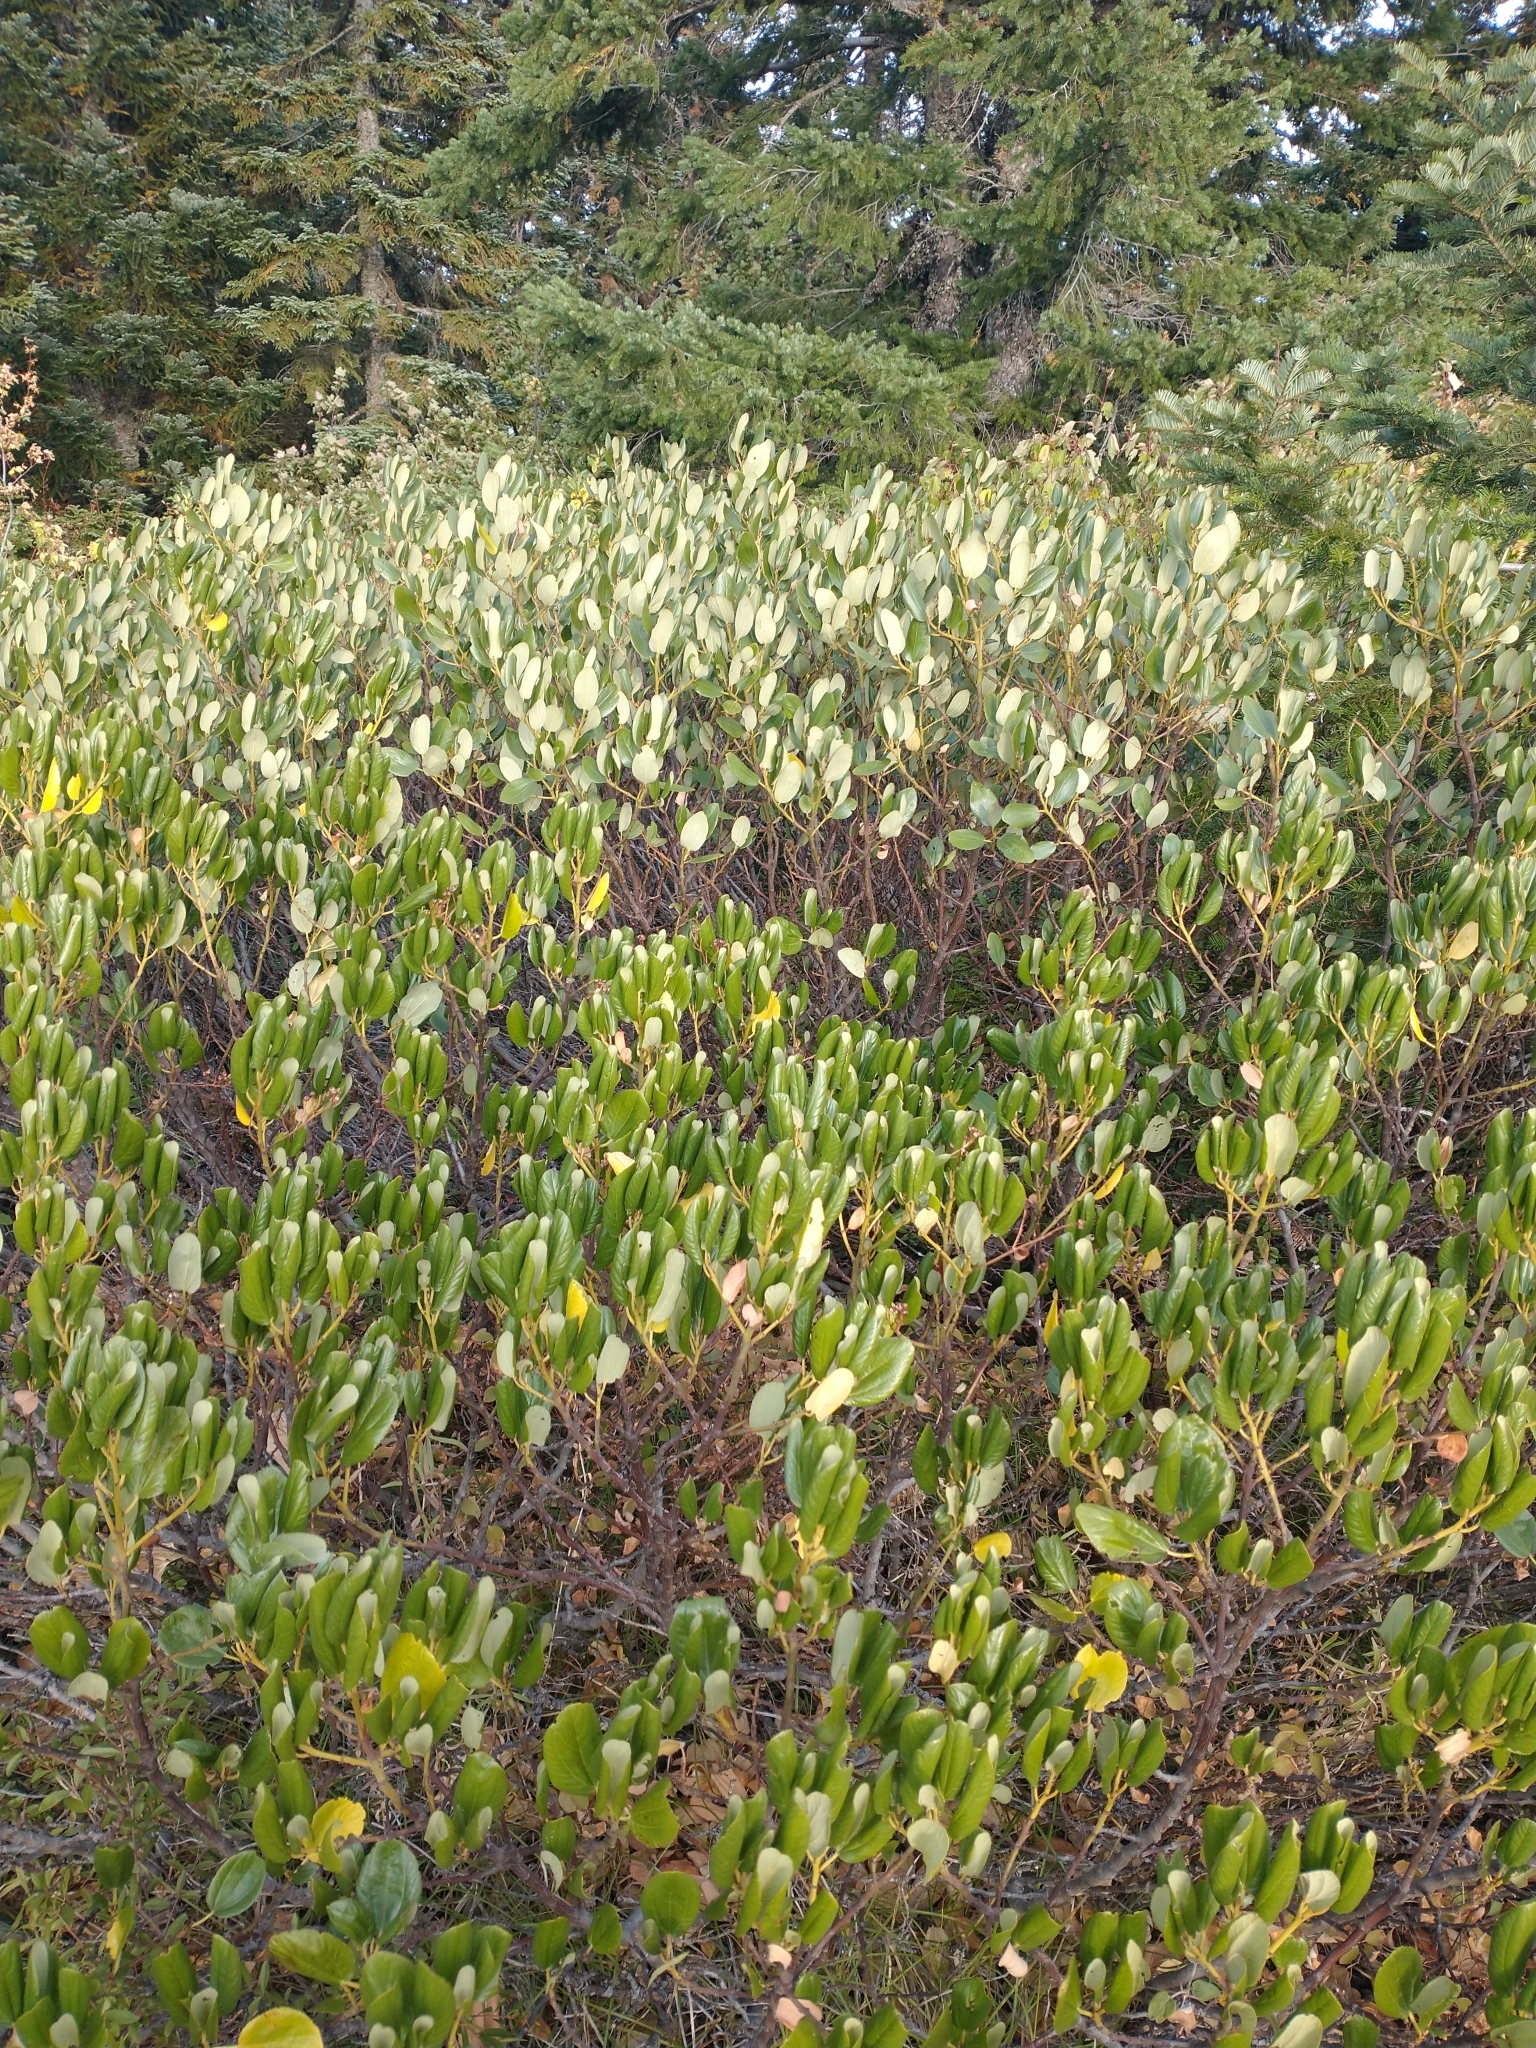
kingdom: Plantae
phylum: Tracheophyta
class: Magnoliopsida
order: Rosales
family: Rhamnaceae
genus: Ceanothus
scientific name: Ceanothus velutinus
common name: Snowbrush
